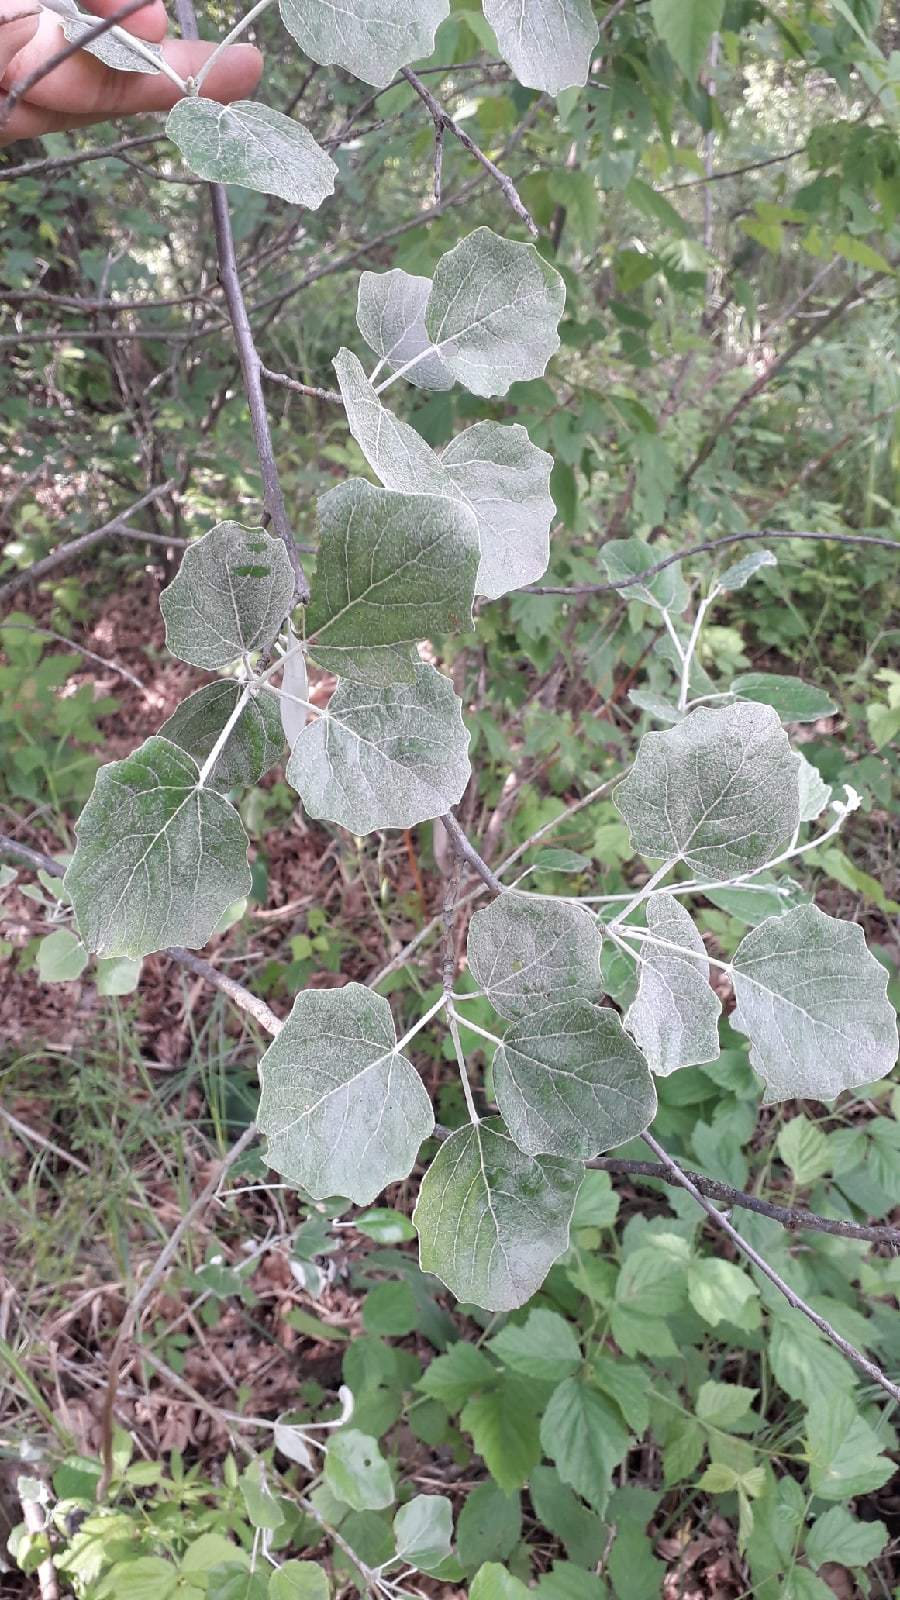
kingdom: Plantae
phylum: Tracheophyta
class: Magnoliopsida
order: Malpighiales
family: Salicaceae
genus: Populus
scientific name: Populus alba
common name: White poplar
